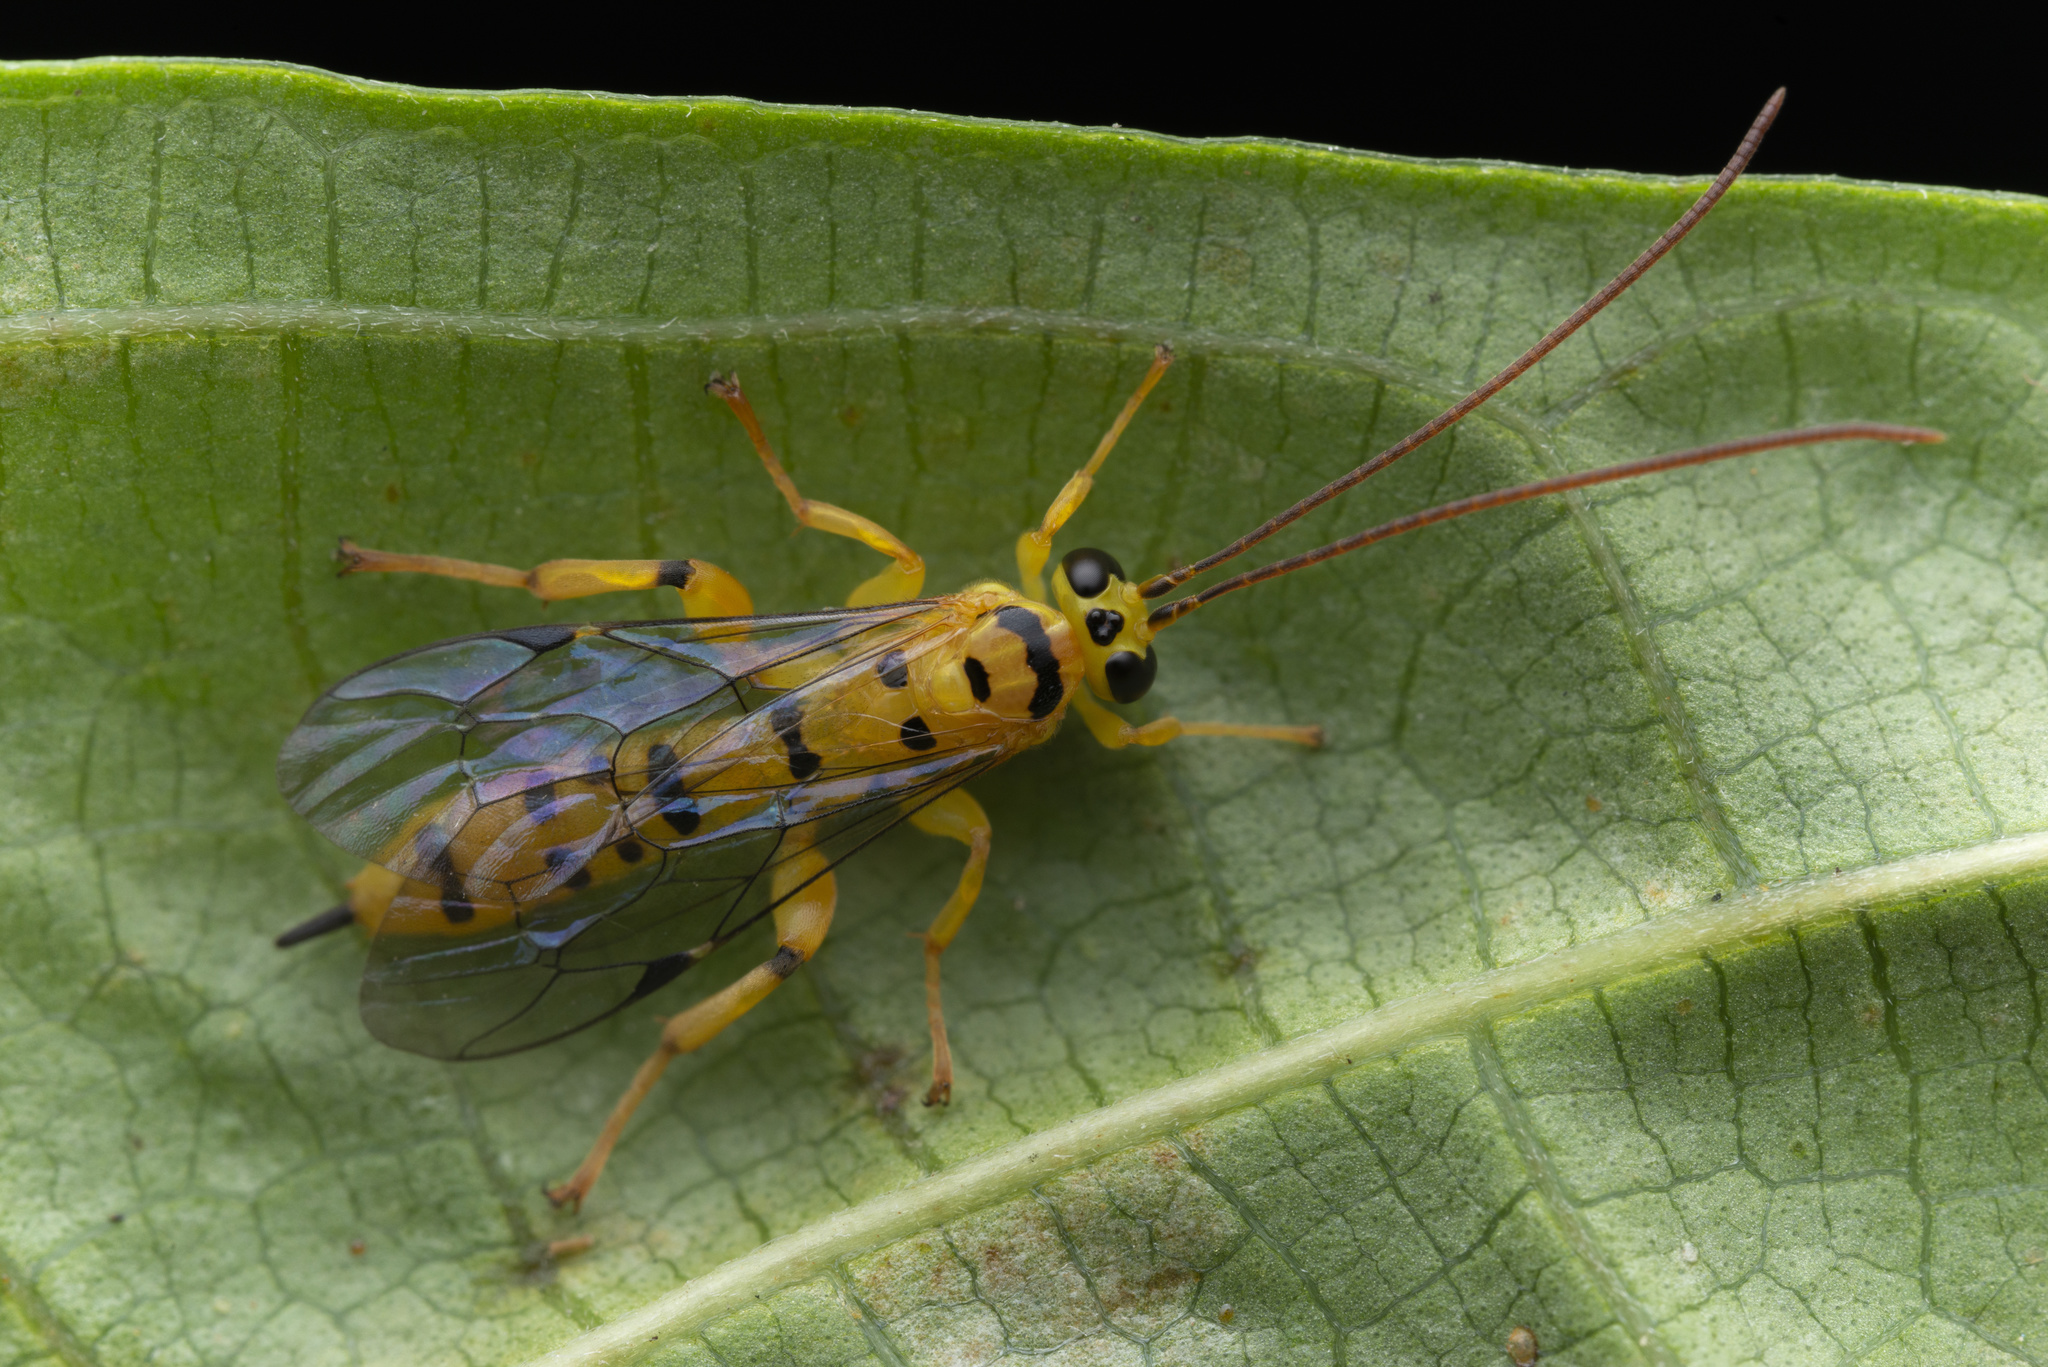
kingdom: Animalia
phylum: Arthropoda
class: Insecta
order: Hymenoptera
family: Ichneumonidae
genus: Xanthopimpla
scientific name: Xanthopimpla reicherti
